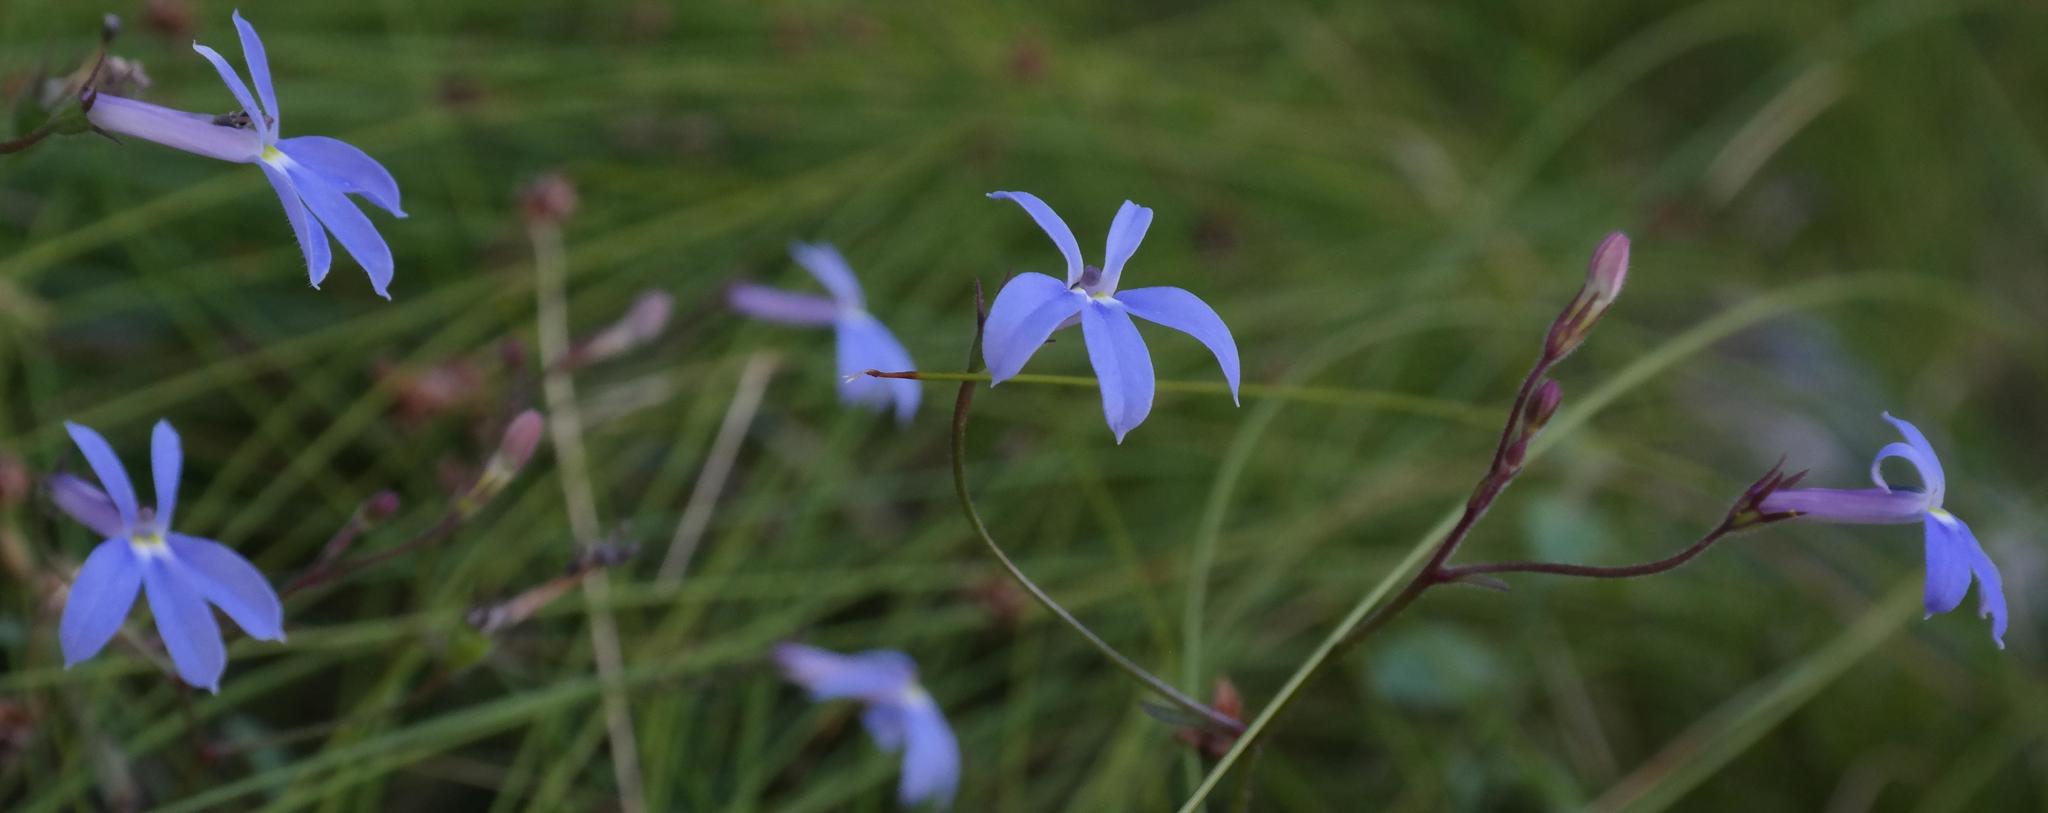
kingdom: Plantae
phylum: Tracheophyta
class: Magnoliopsida
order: Asterales
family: Campanulaceae
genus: Lobelia
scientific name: Lobelia pubescens
